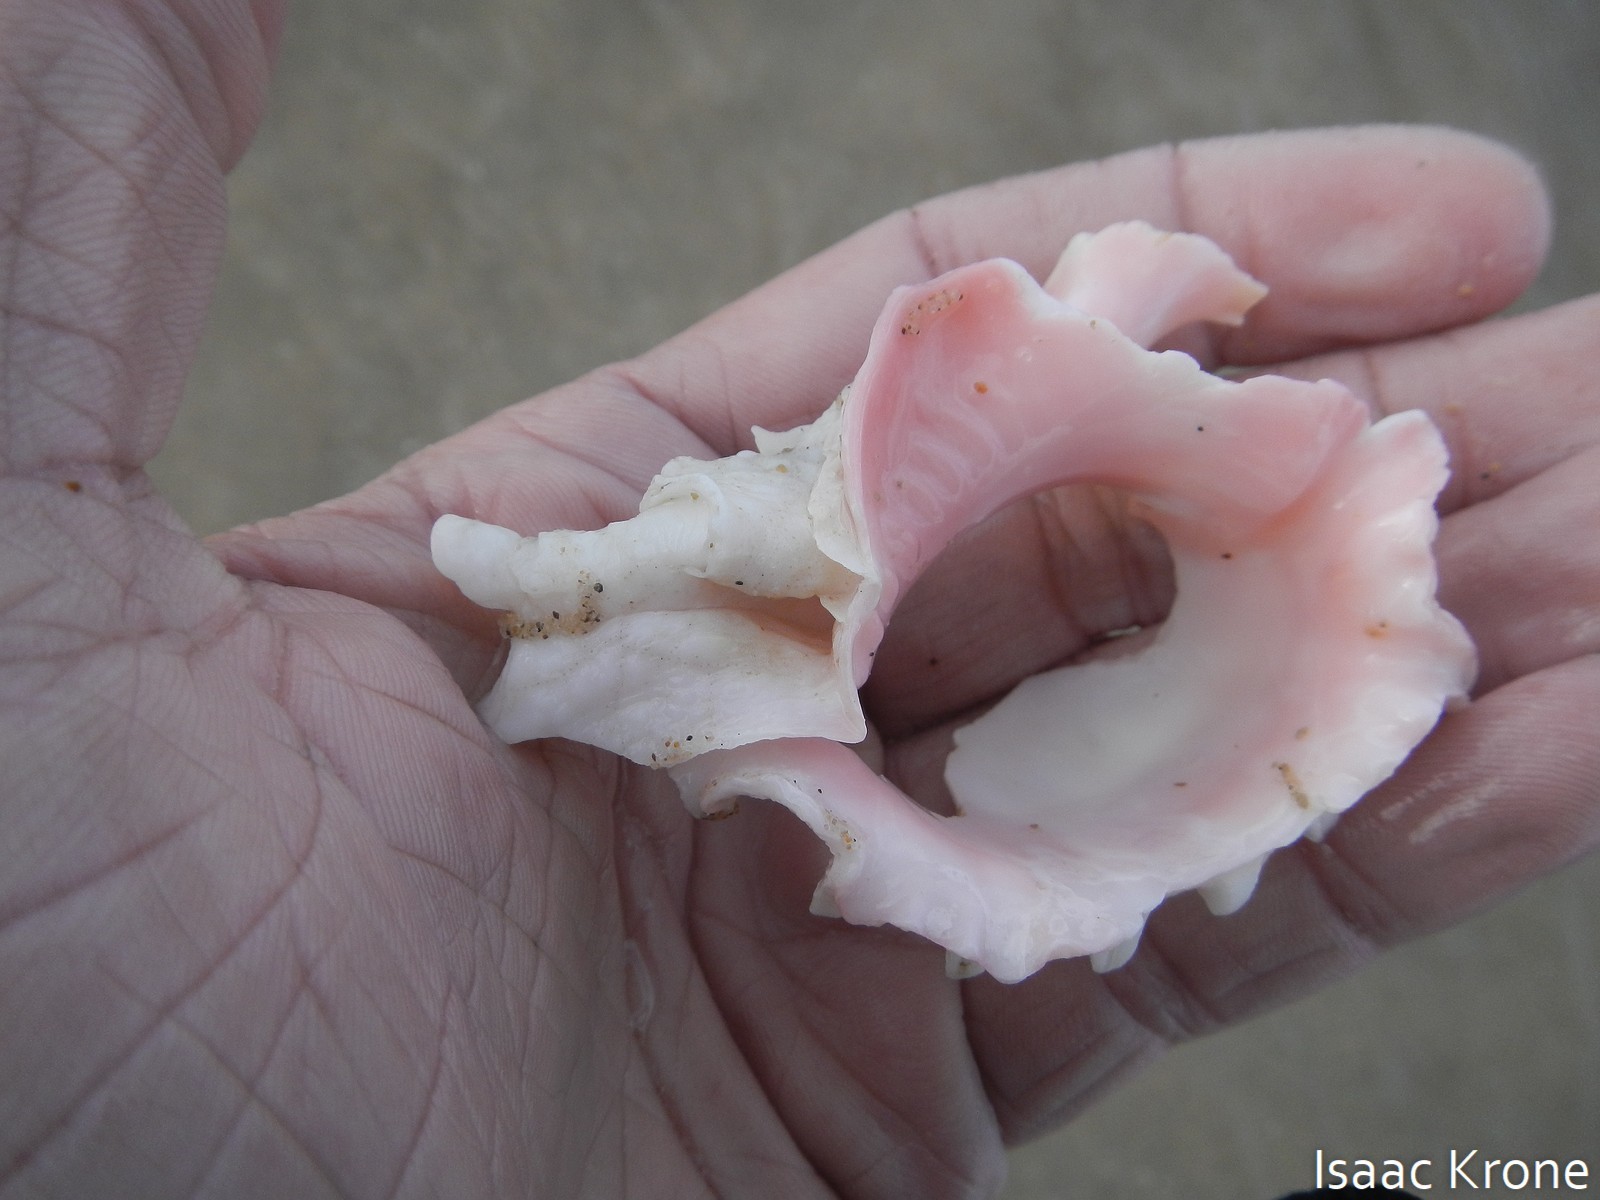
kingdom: Animalia
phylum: Mollusca
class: Gastropoda
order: Neogastropoda
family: Muricidae
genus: Phyllonotus
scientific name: Phyllonotus erythrostomus
